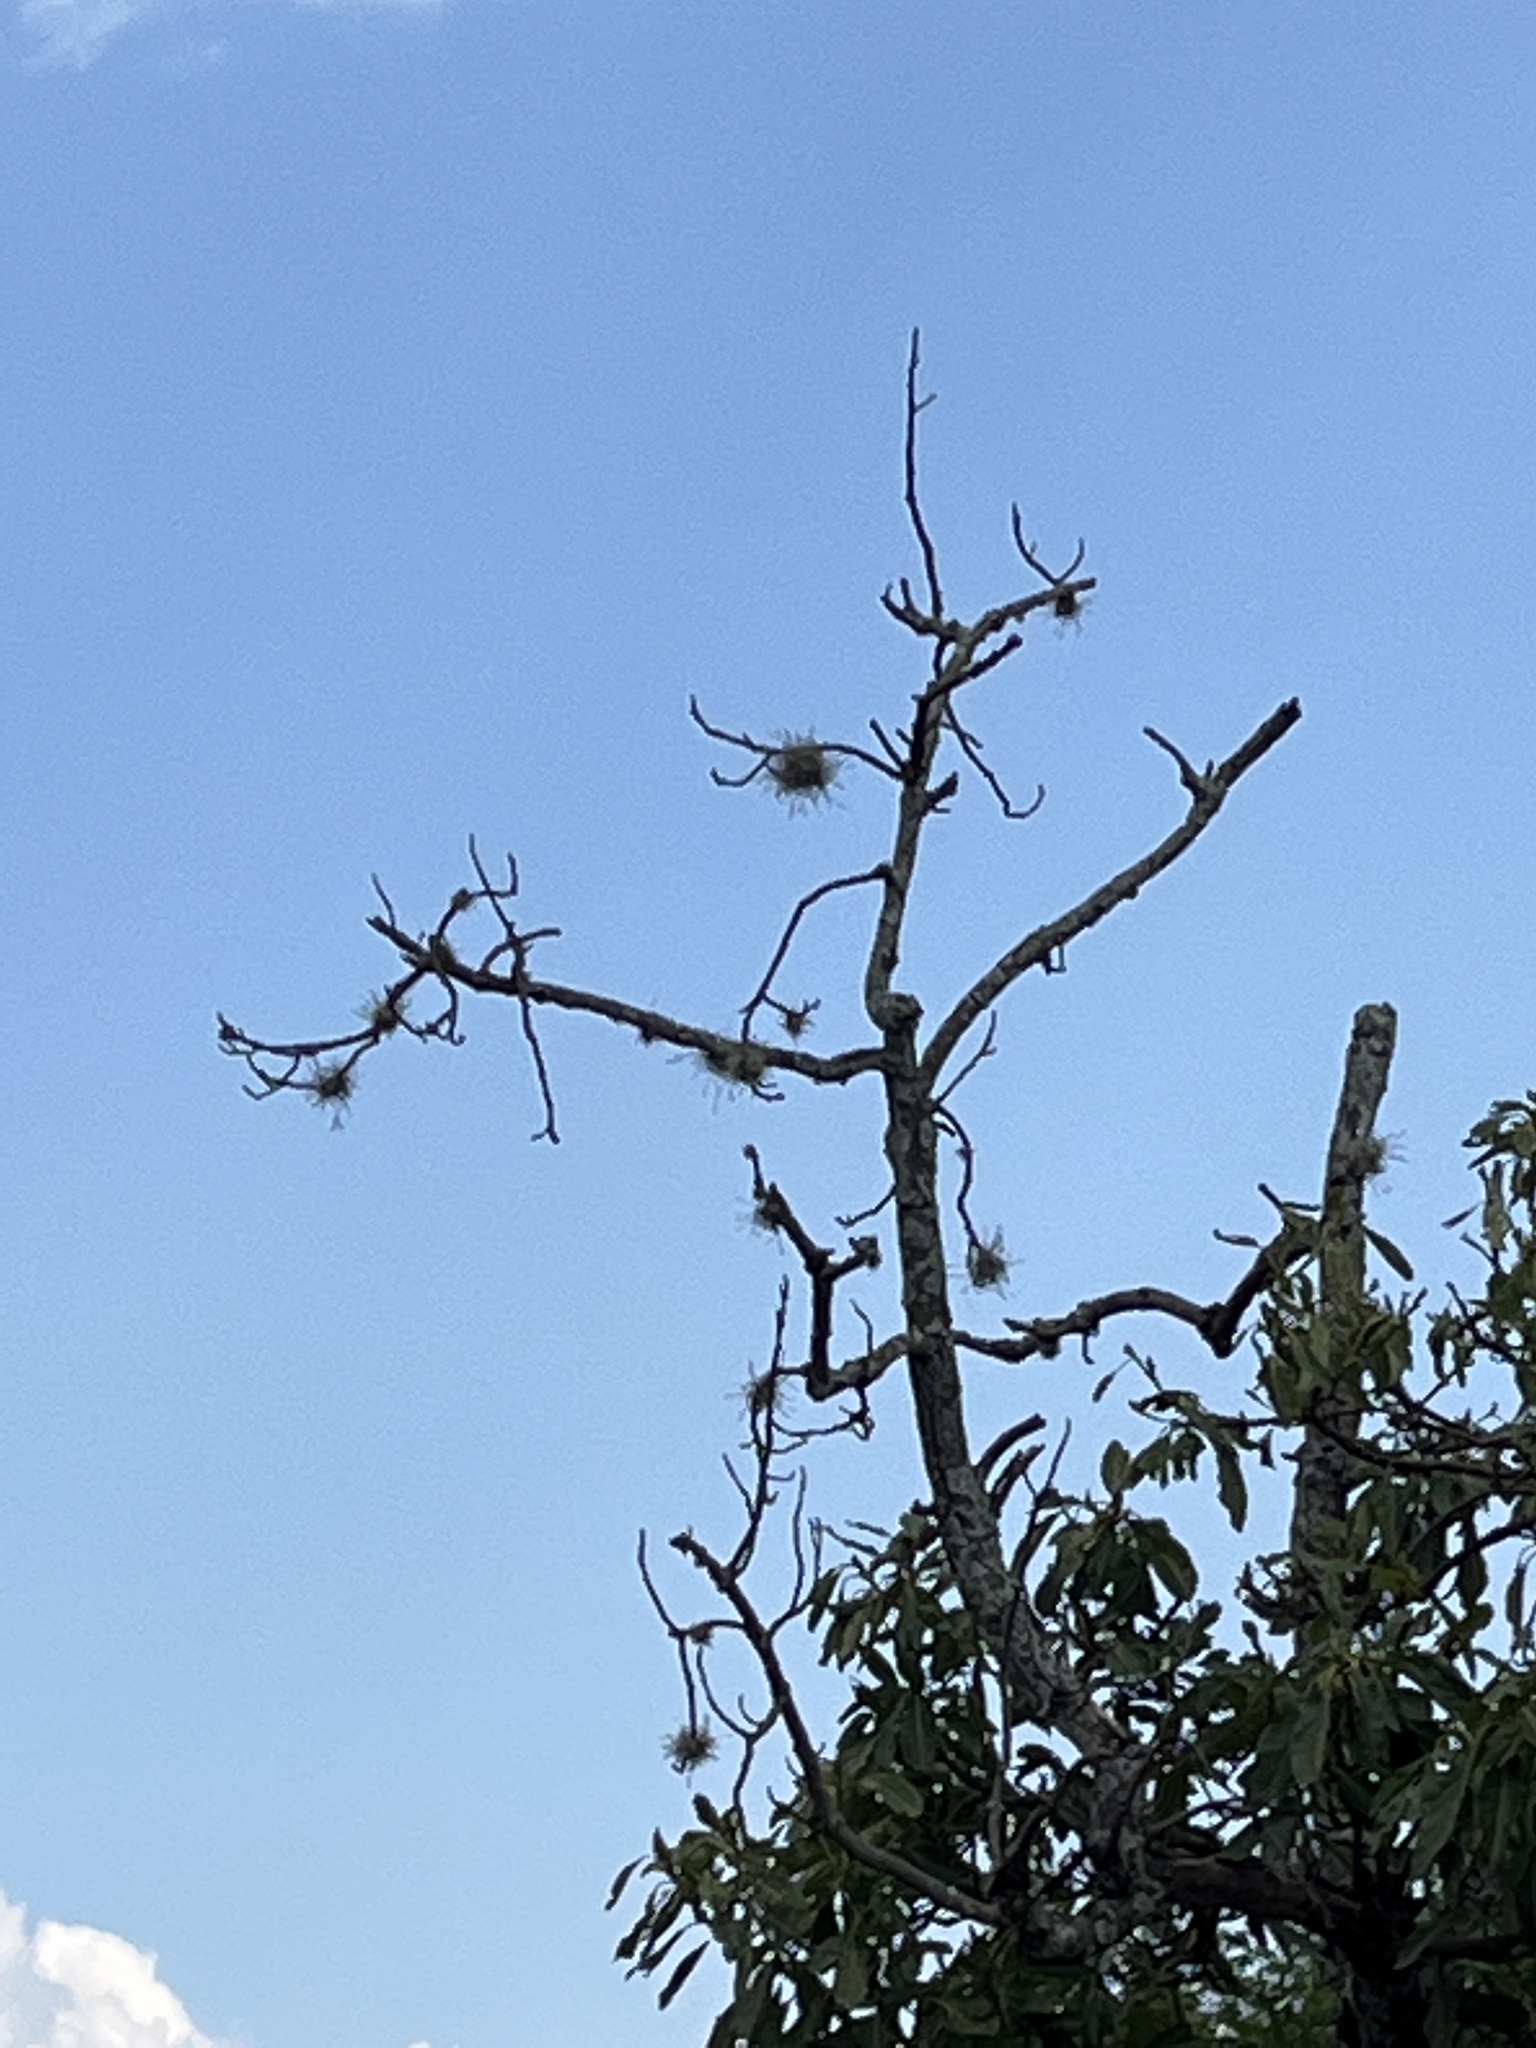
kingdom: Plantae
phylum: Tracheophyta
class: Liliopsida
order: Poales
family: Bromeliaceae
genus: Tillandsia
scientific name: Tillandsia recurvata
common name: Small ballmoss
